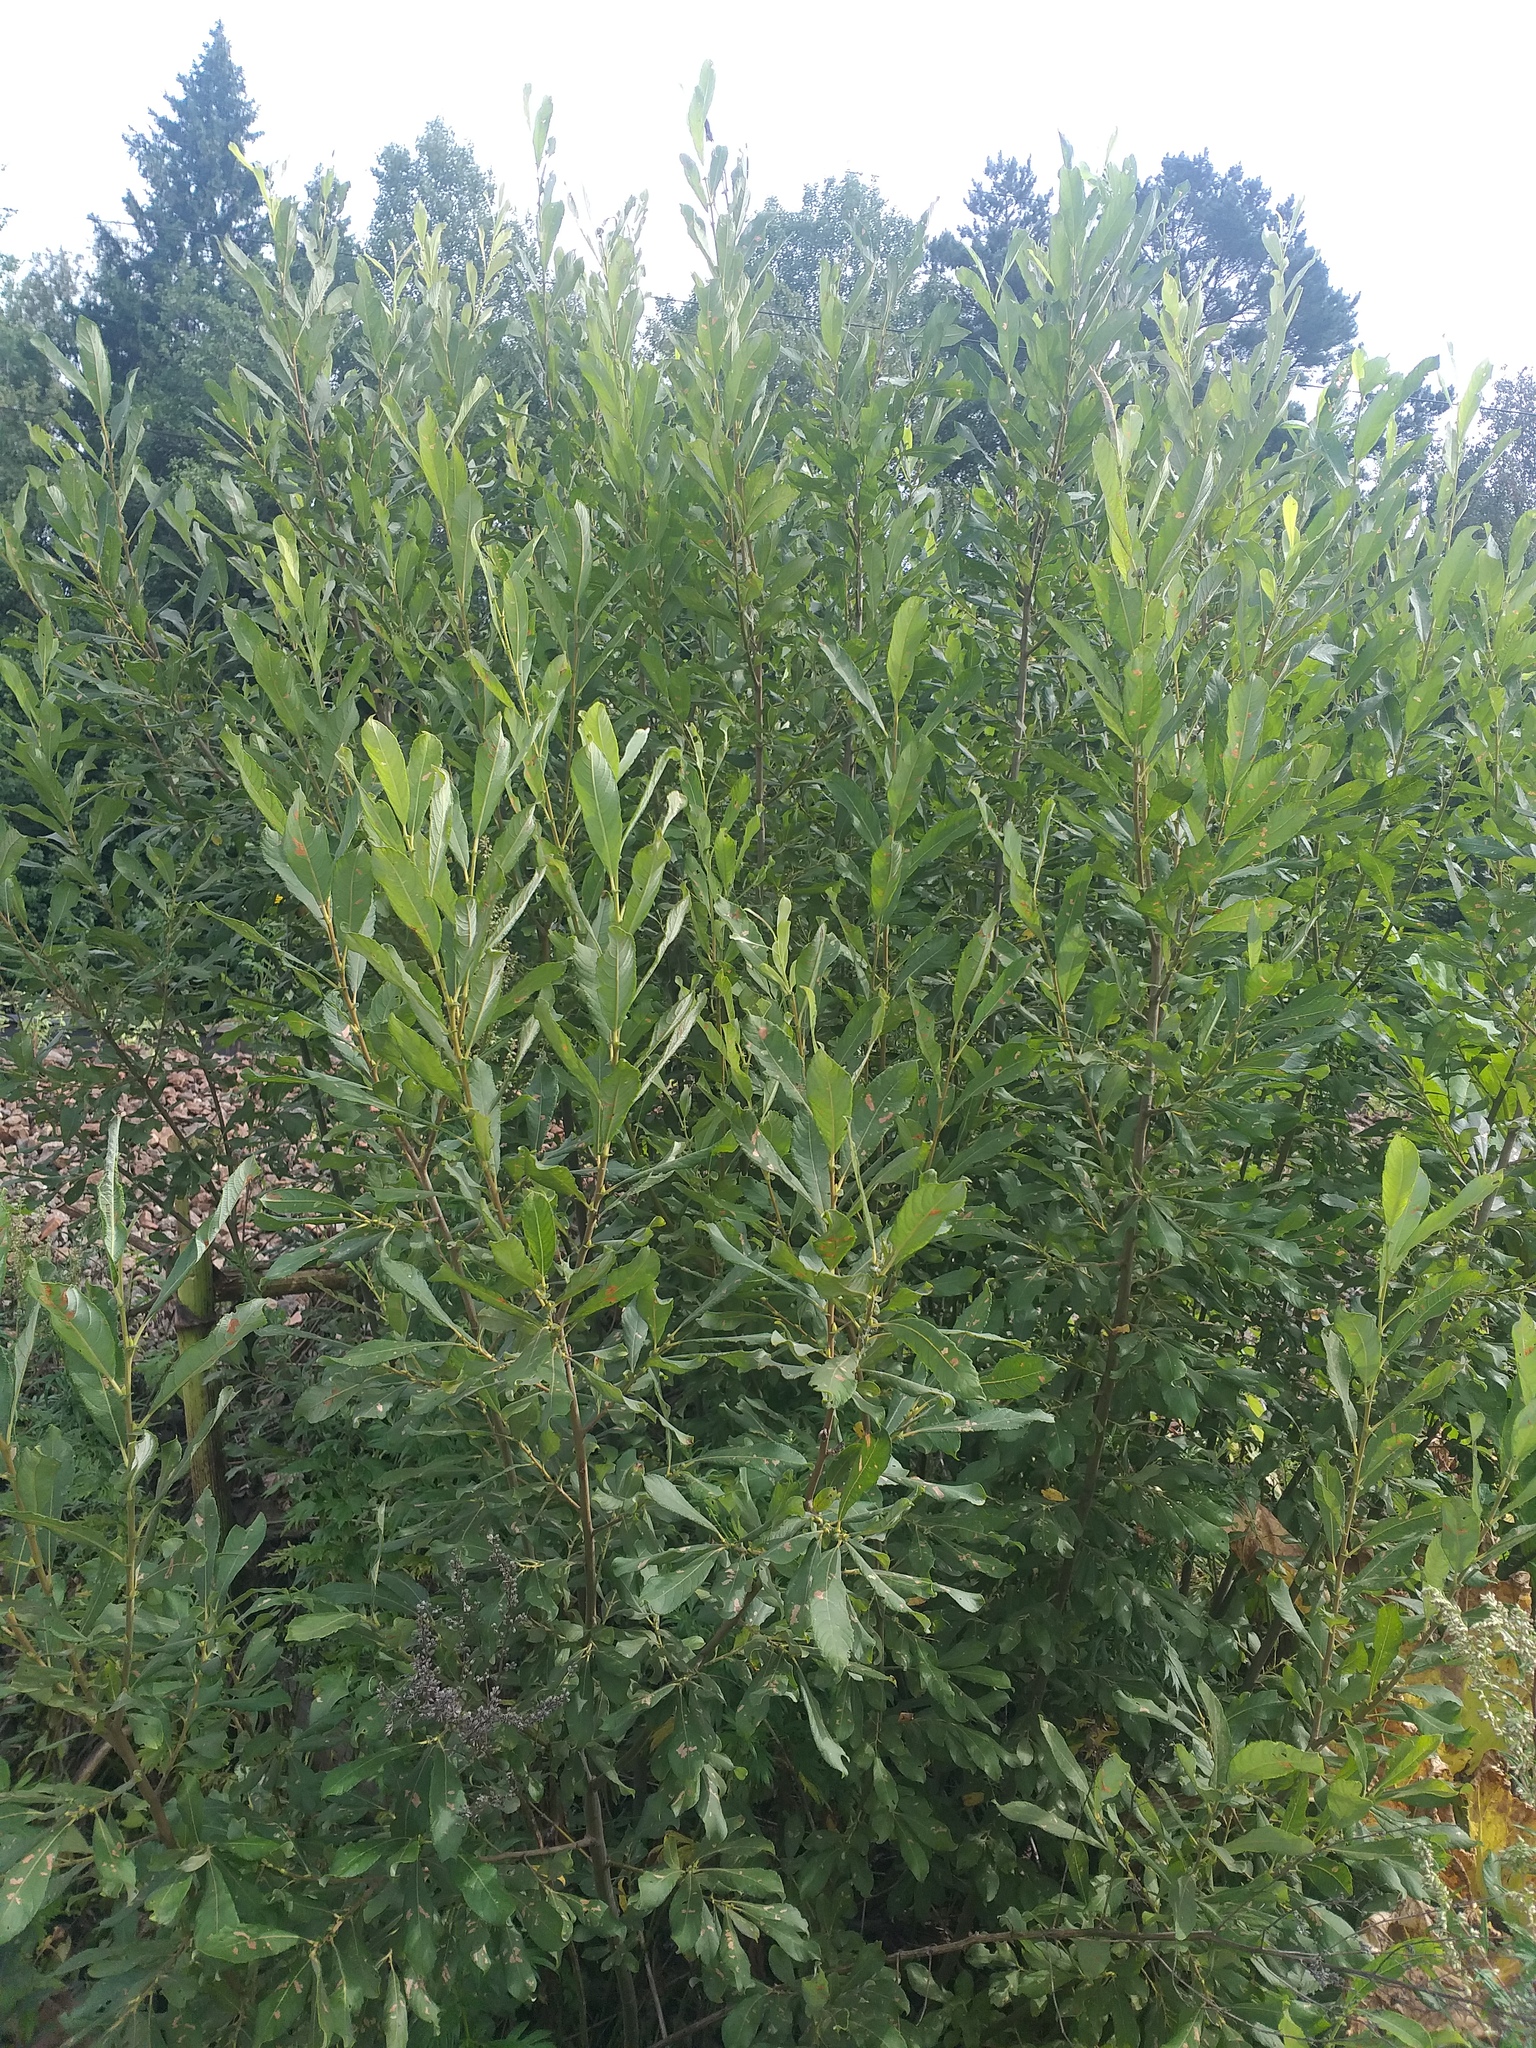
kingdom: Plantae
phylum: Tracheophyta
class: Magnoliopsida
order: Malpighiales
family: Salicaceae
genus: Salix
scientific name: Salix cinerea
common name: Common sallow
